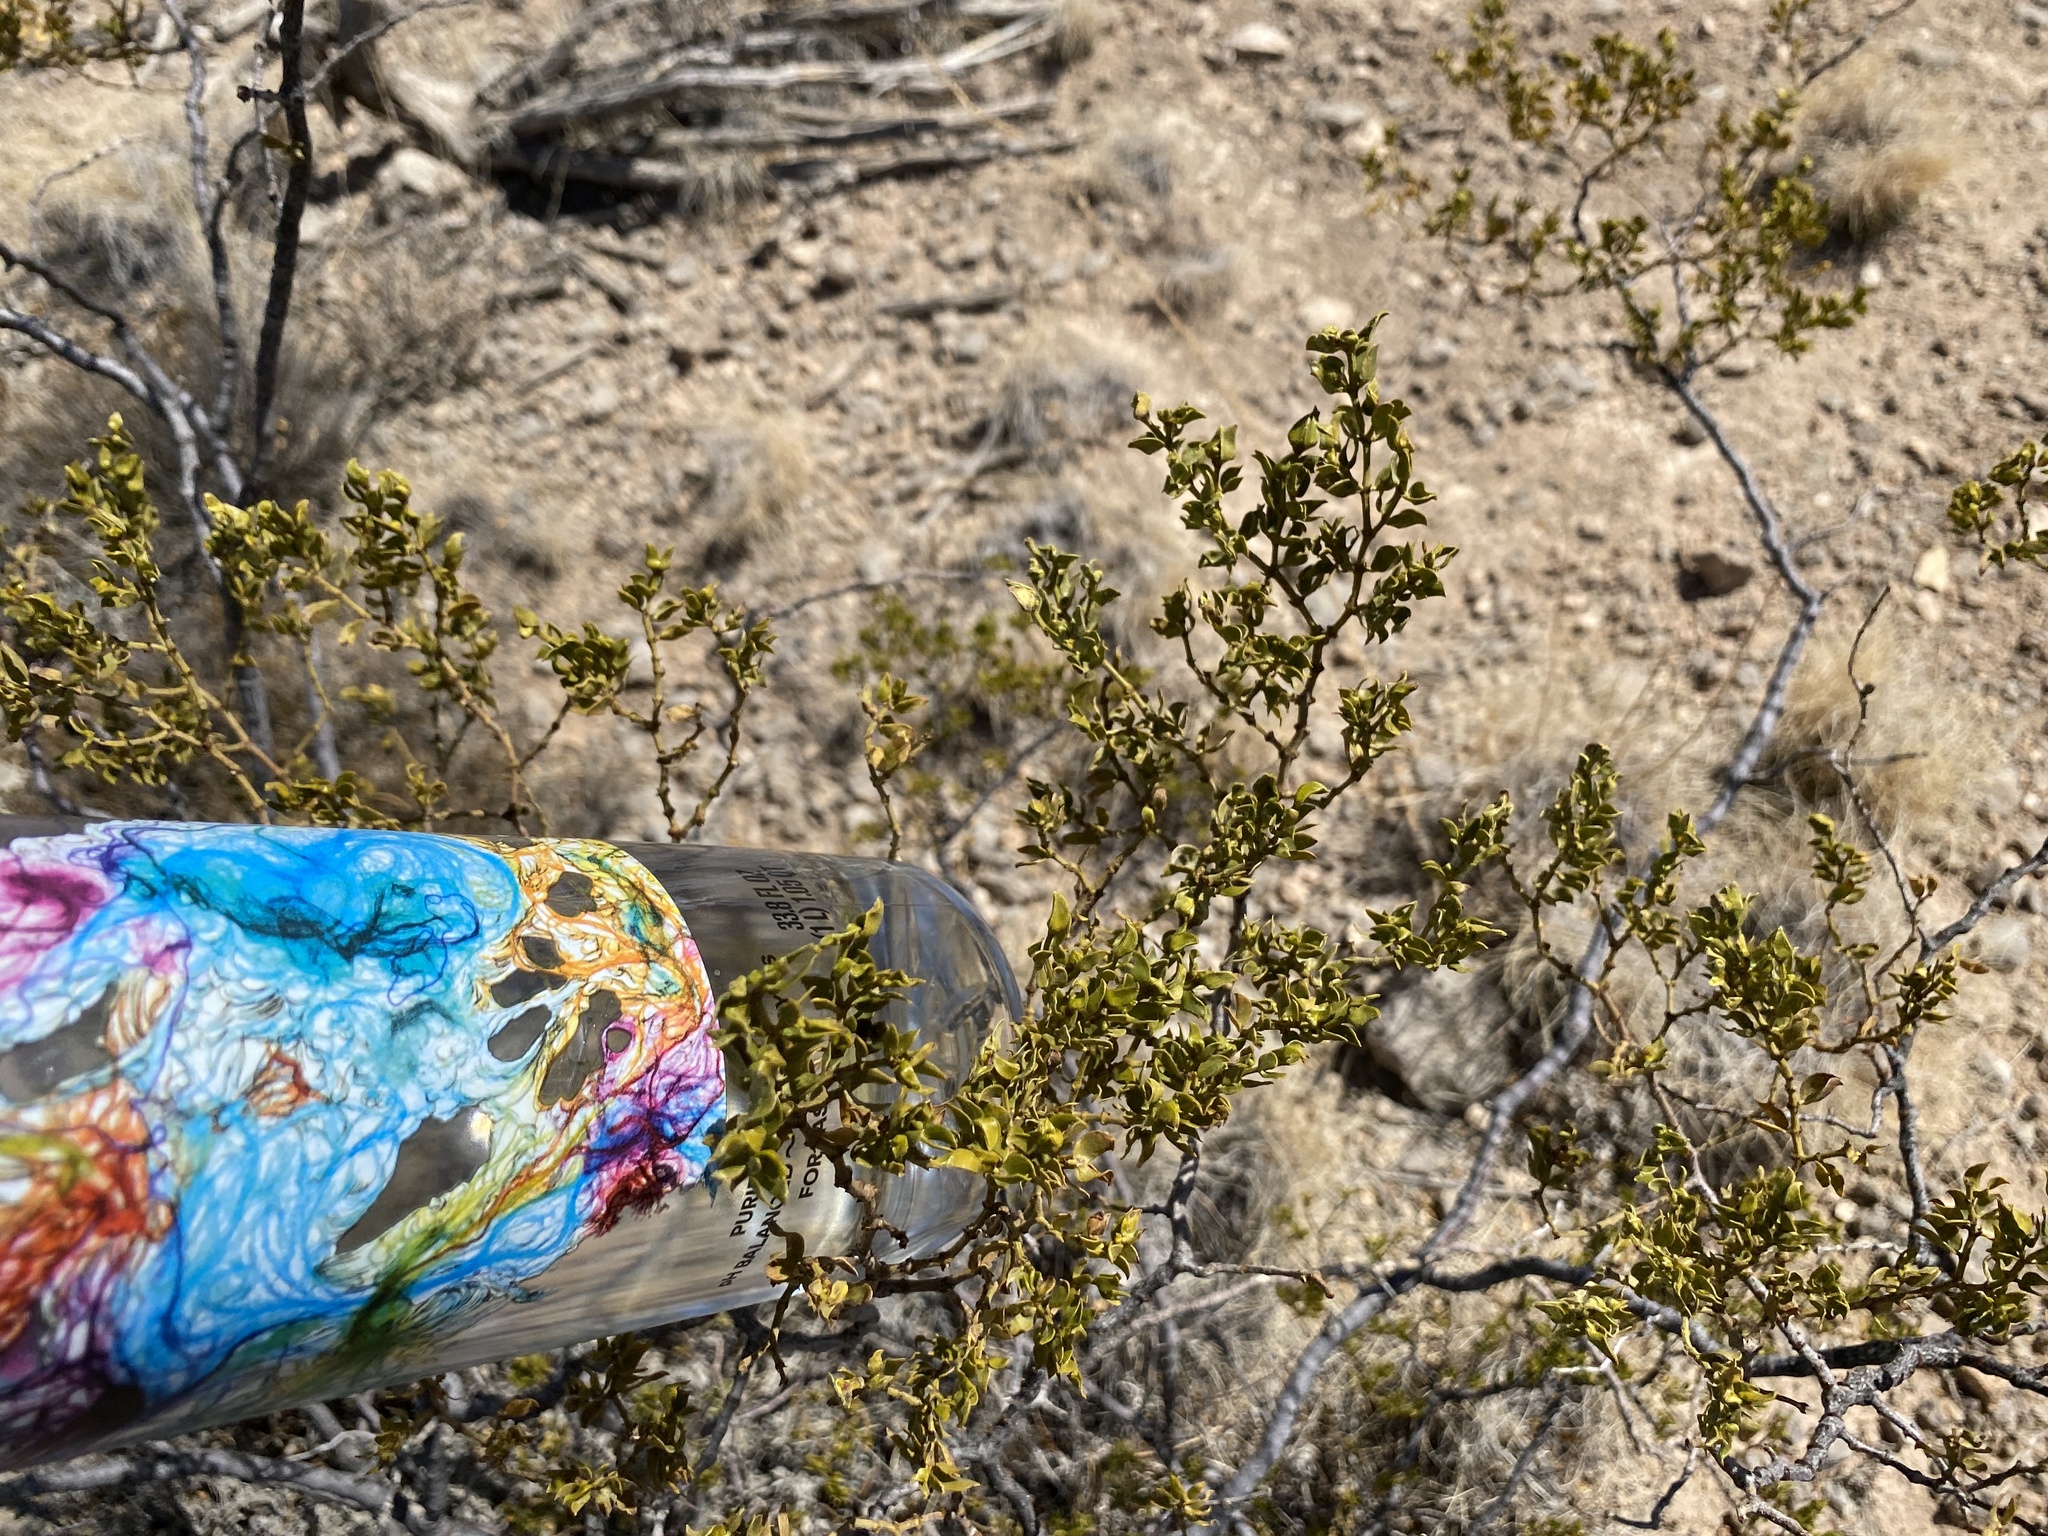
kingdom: Plantae
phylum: Tracheophyta
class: Magnoliopsida
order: Zygophyllales
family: Zygophyllaceae
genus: Larrea
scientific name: Larrea tridentata
